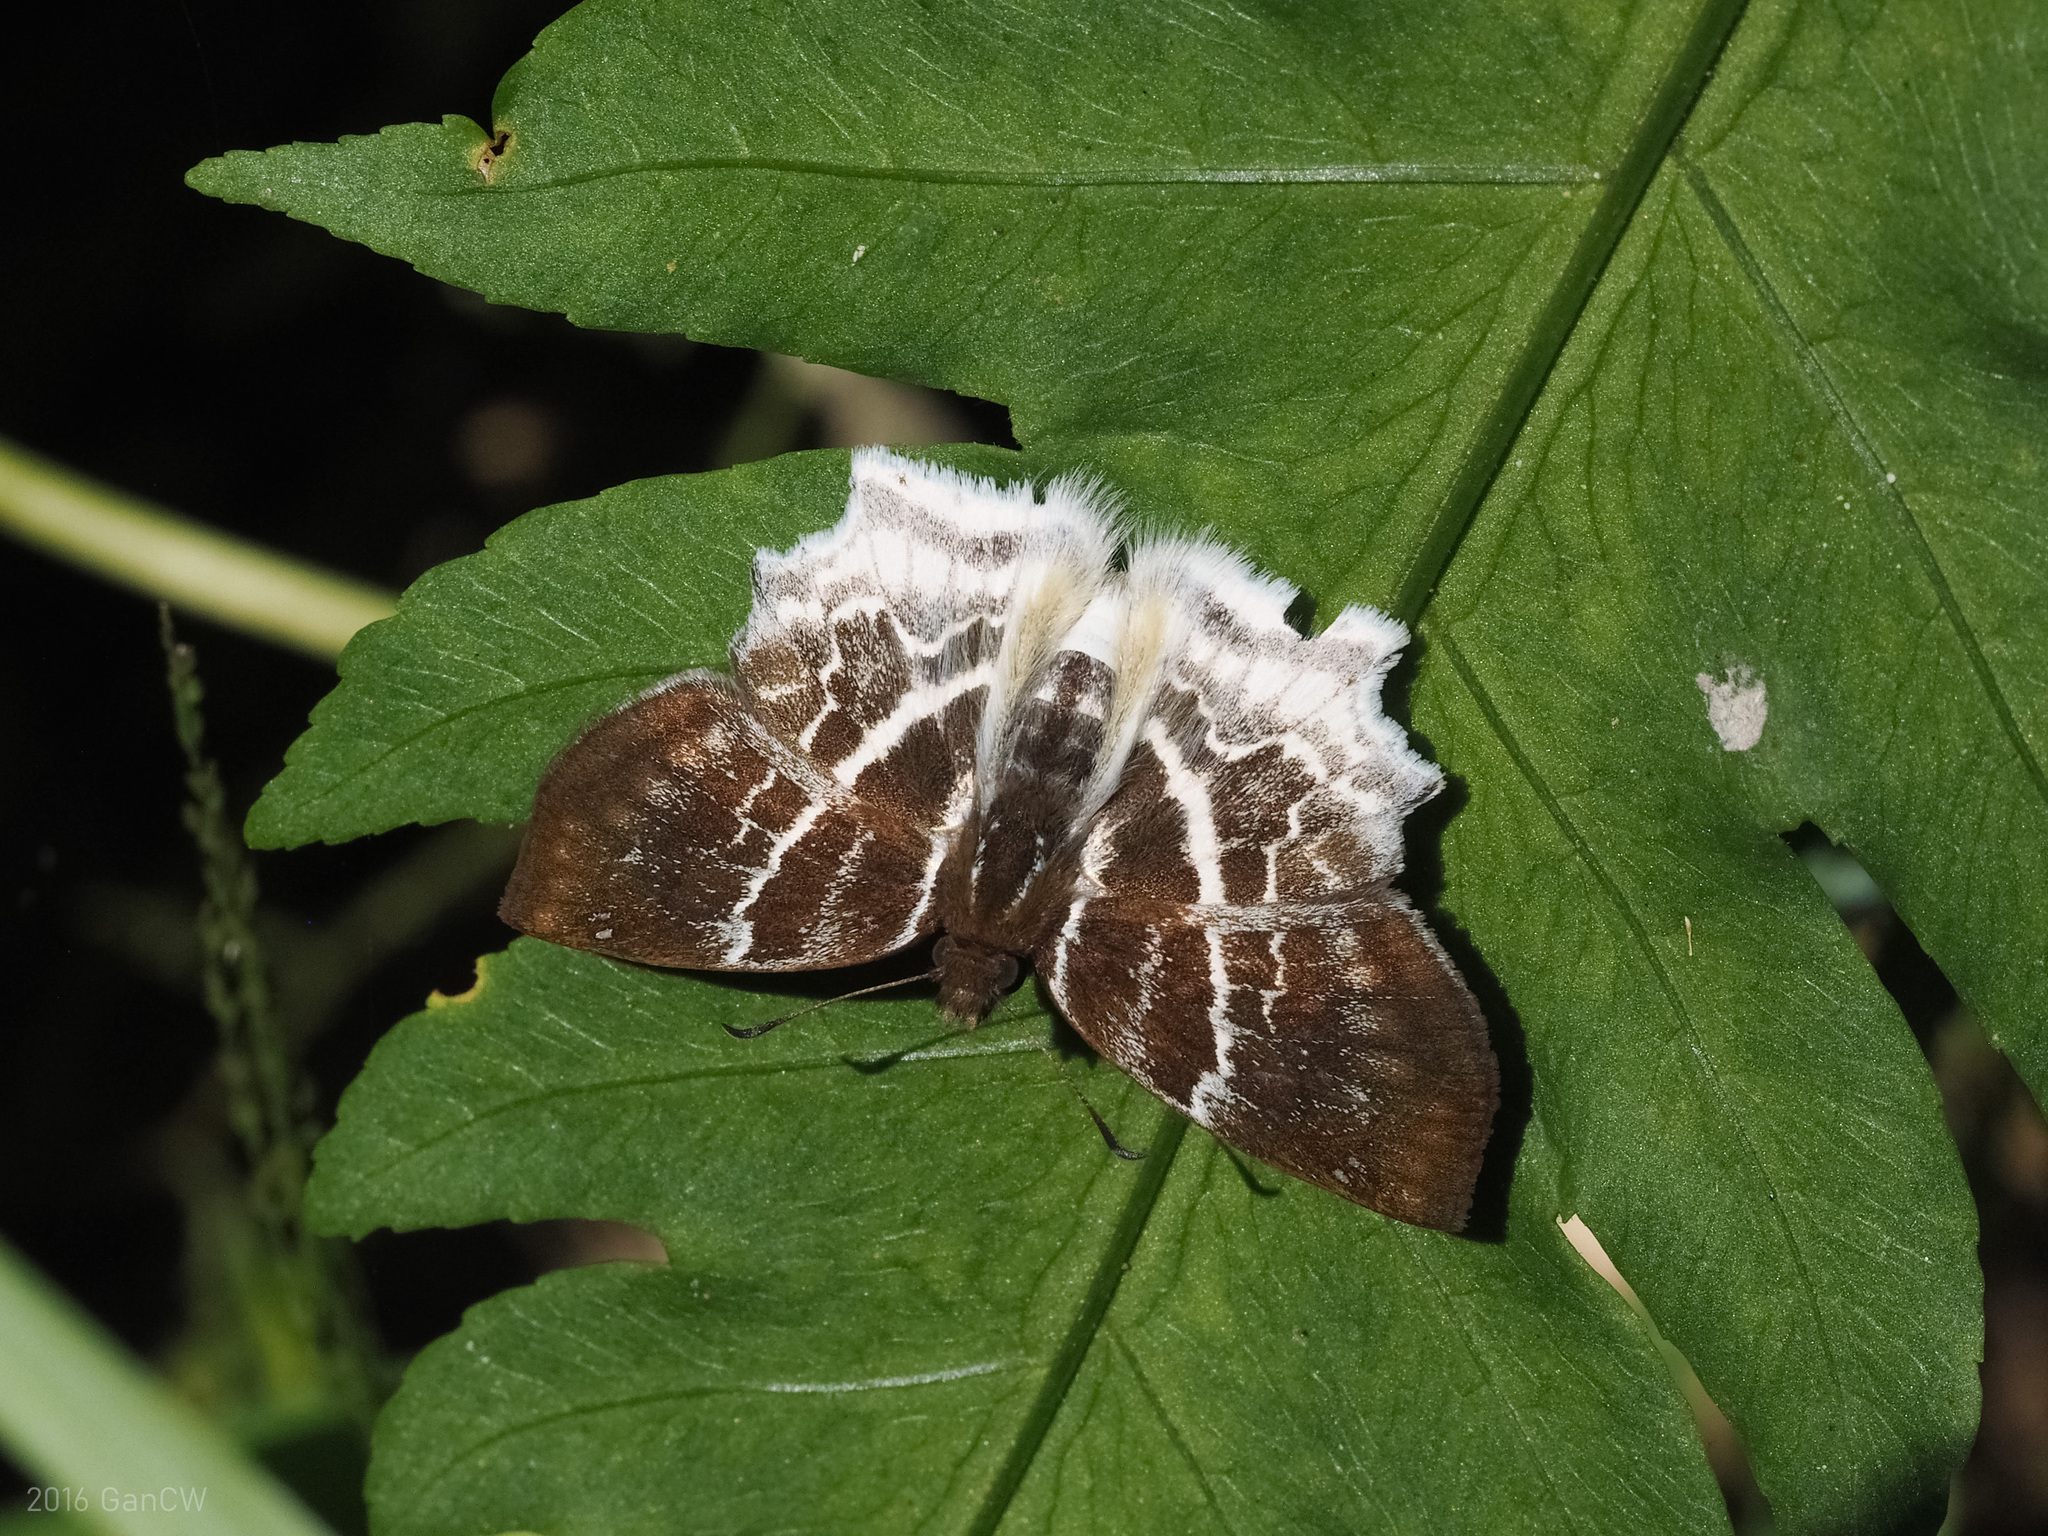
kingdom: Animalia
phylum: Arthropoda
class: Insecta
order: Lepidoptera
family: Hesperiidae
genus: Odontoptilum
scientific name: Odontoptilum pygela
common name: Banded angle
